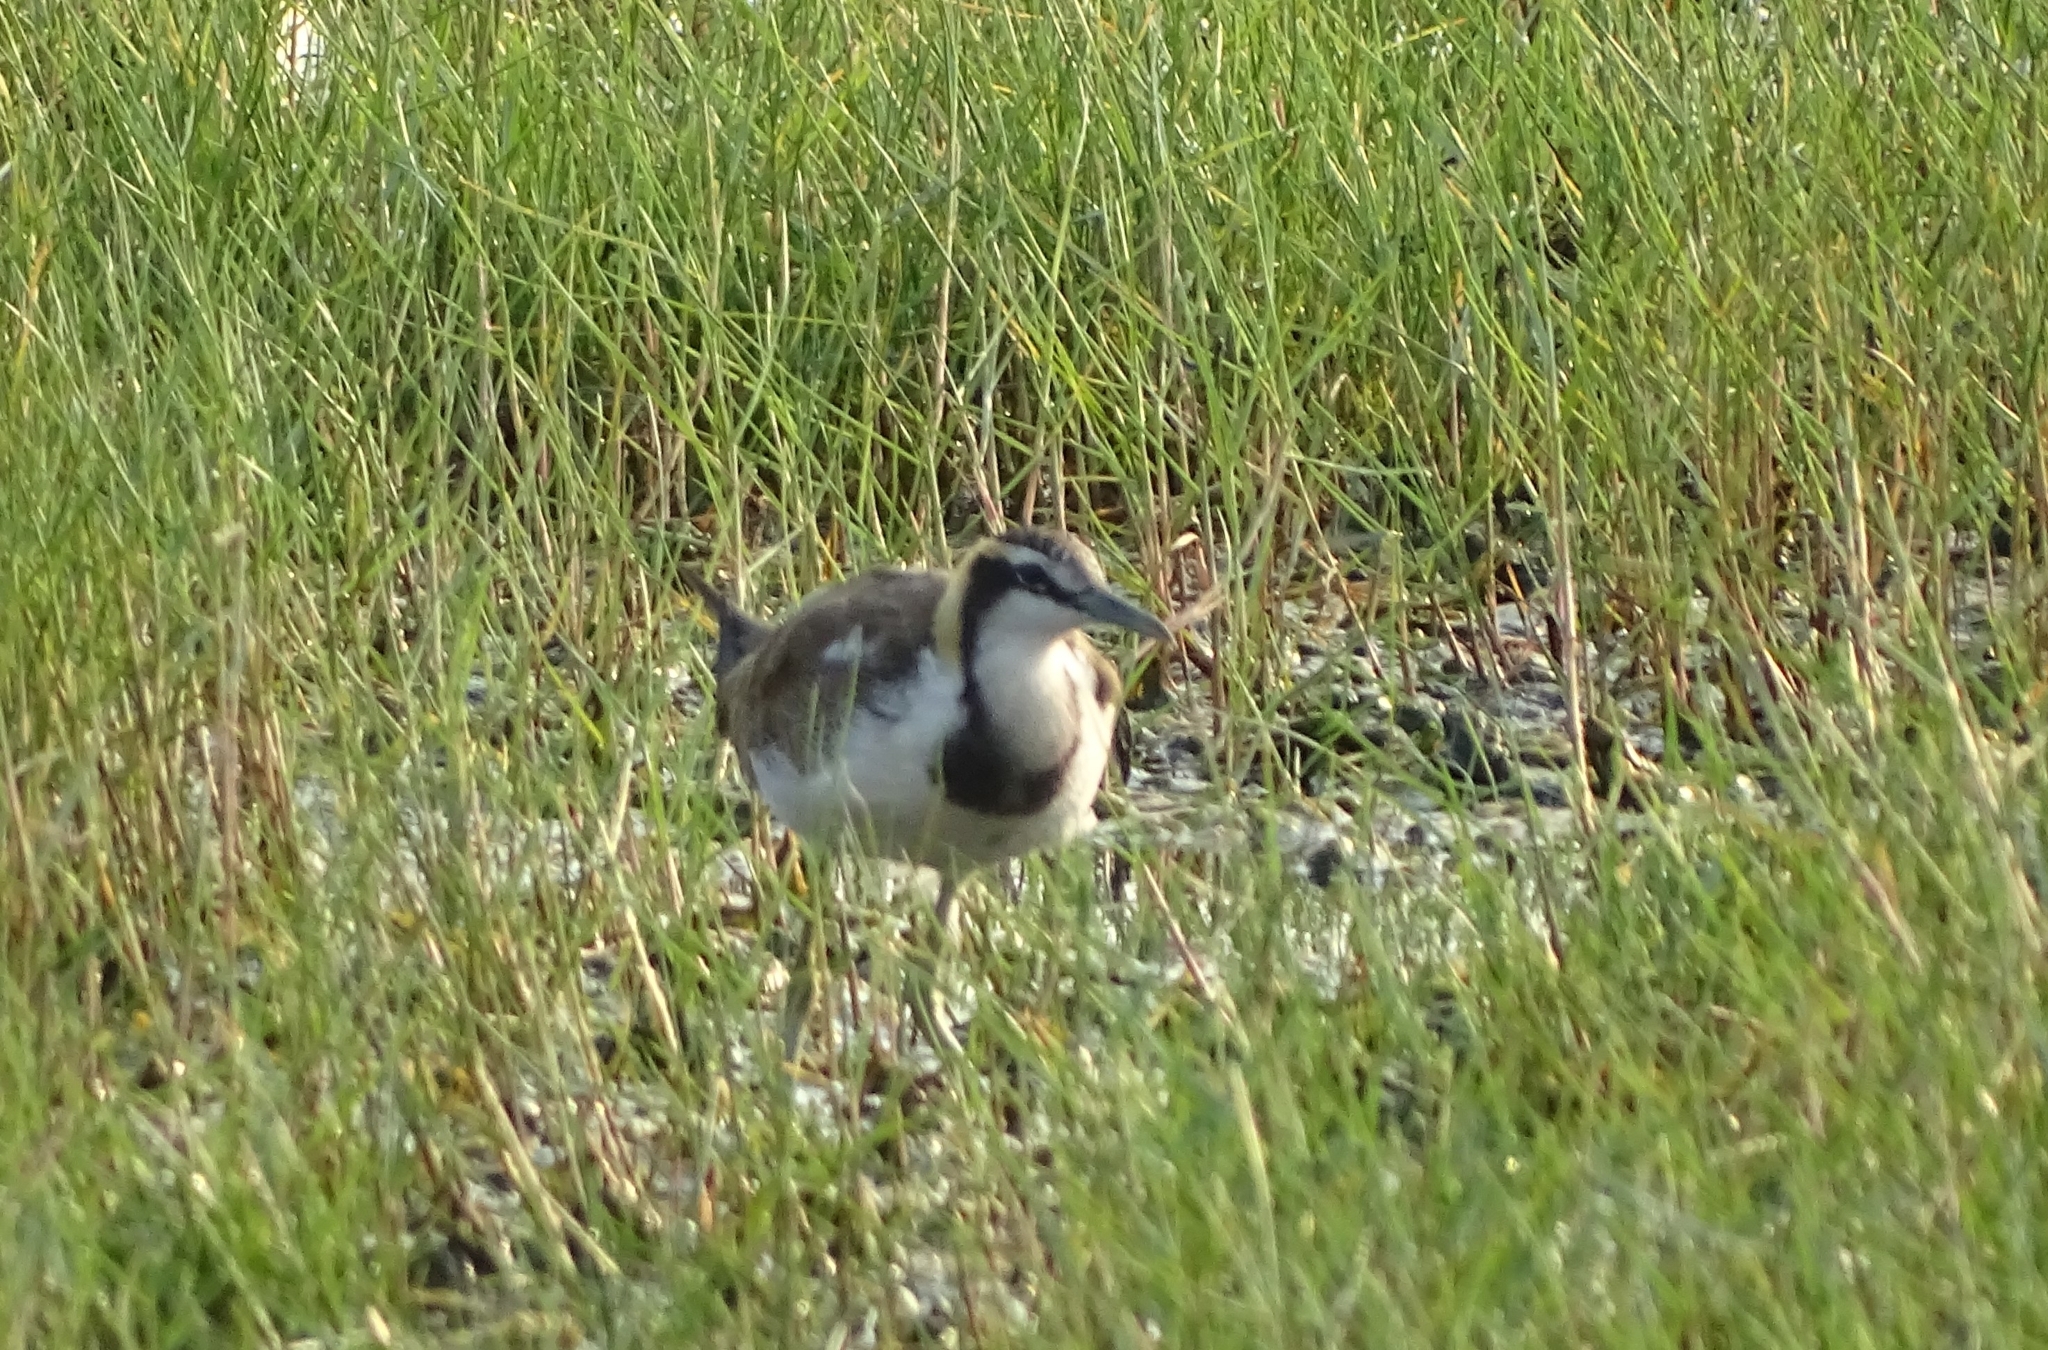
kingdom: Animalia
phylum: Chordata
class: Aves
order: Charadriiformes
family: Jacanidae
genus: Hydrophasianus
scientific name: Hydrophasianus chirurgus
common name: Pheasant-tailed jacana
